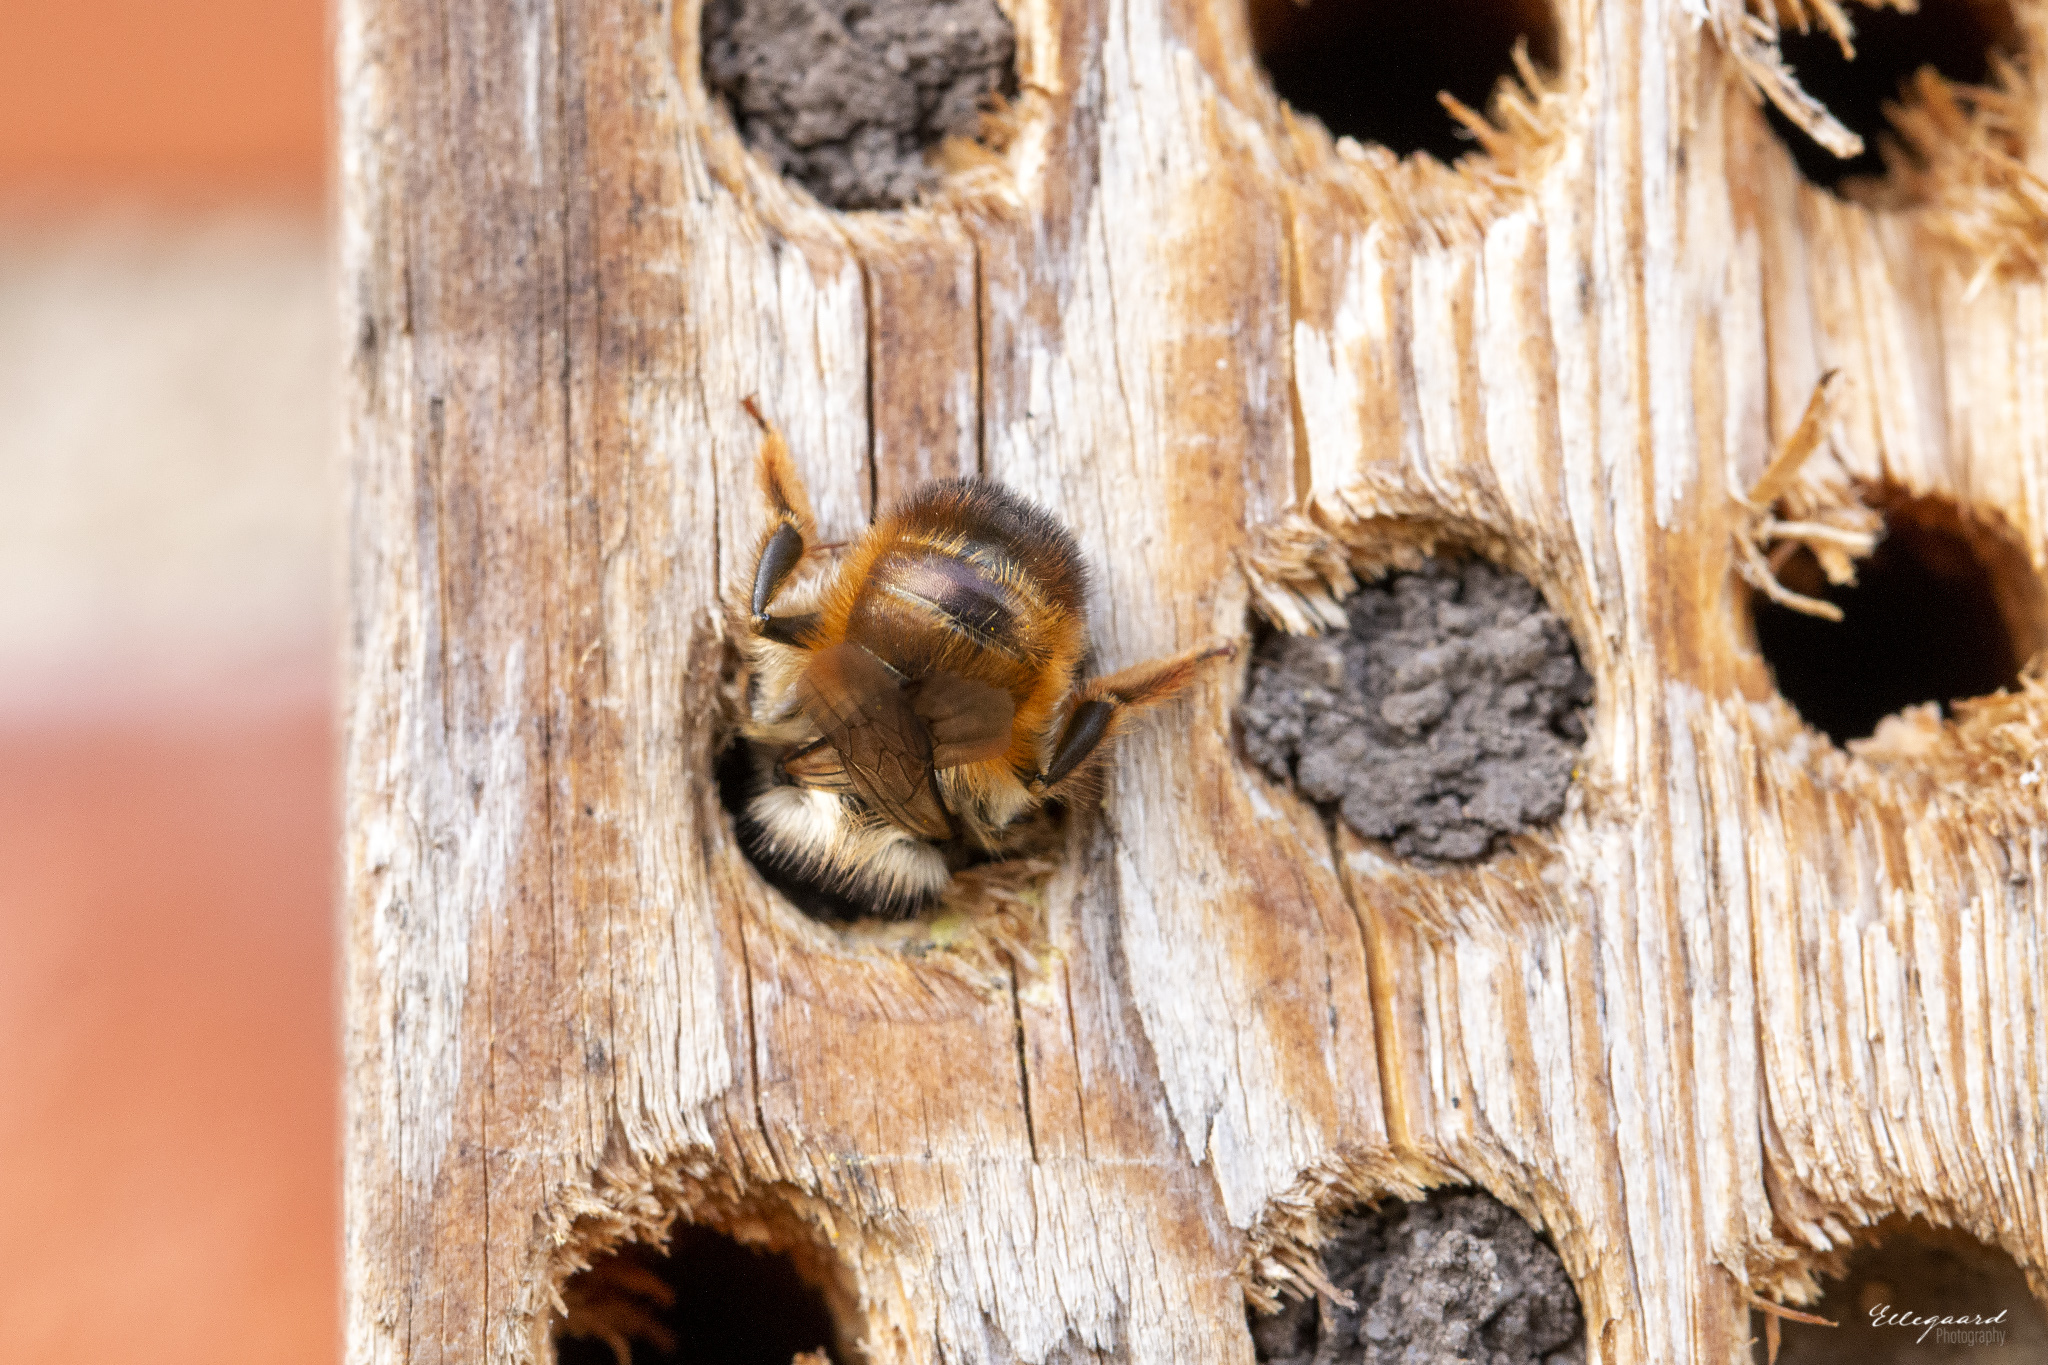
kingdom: Animalia
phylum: Arthropoda
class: Insecta
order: Hymenoptera
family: Megachilidae
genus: Osmia
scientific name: Osmia bicornis
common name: Red mason bee
